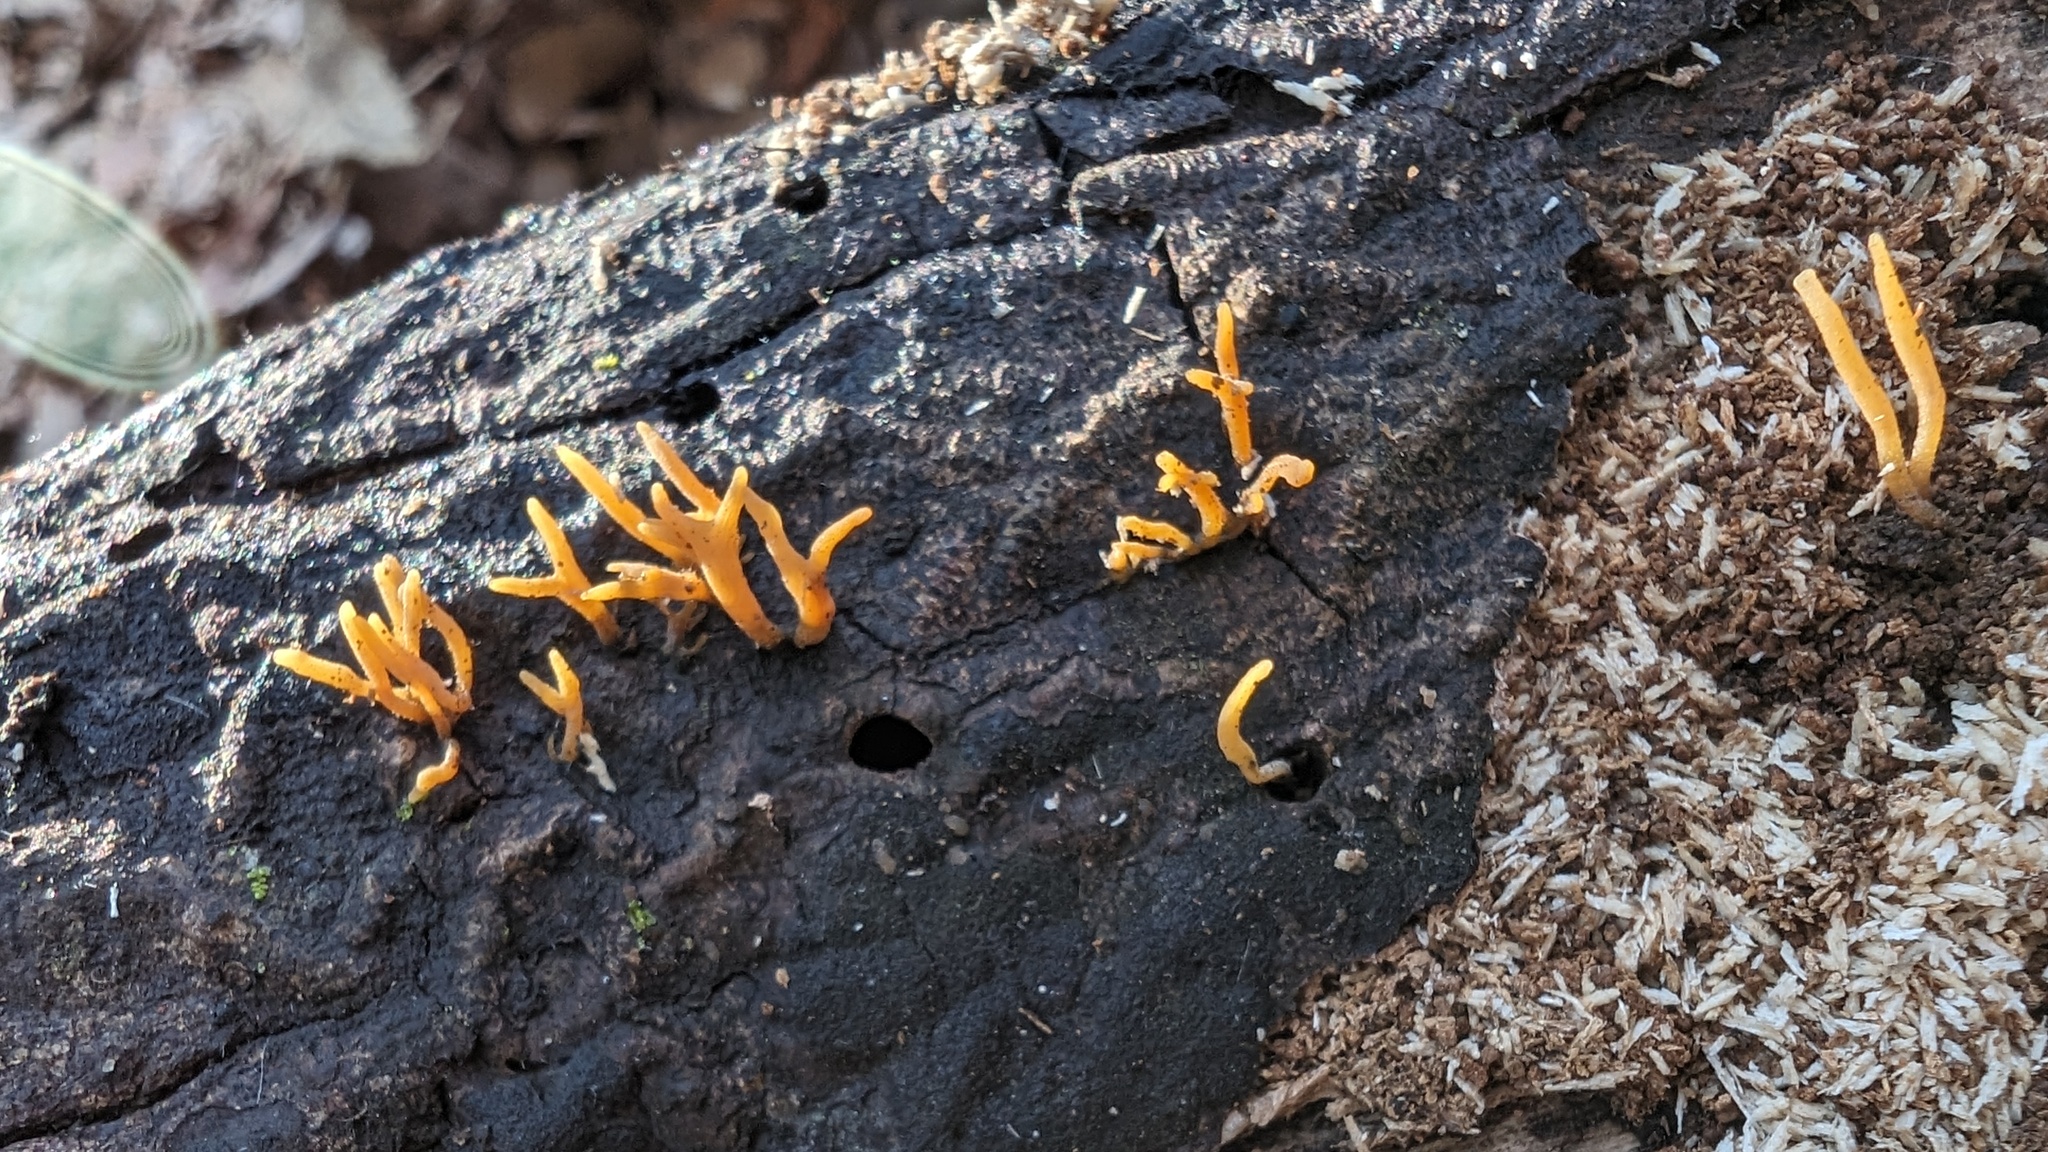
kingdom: Fungi
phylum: Basidiomycota
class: Dacrymycetes
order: Dacrymycetales
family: Dacrymycetaceae
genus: Calocera
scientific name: Calocera cornea
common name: Small stagshorn
